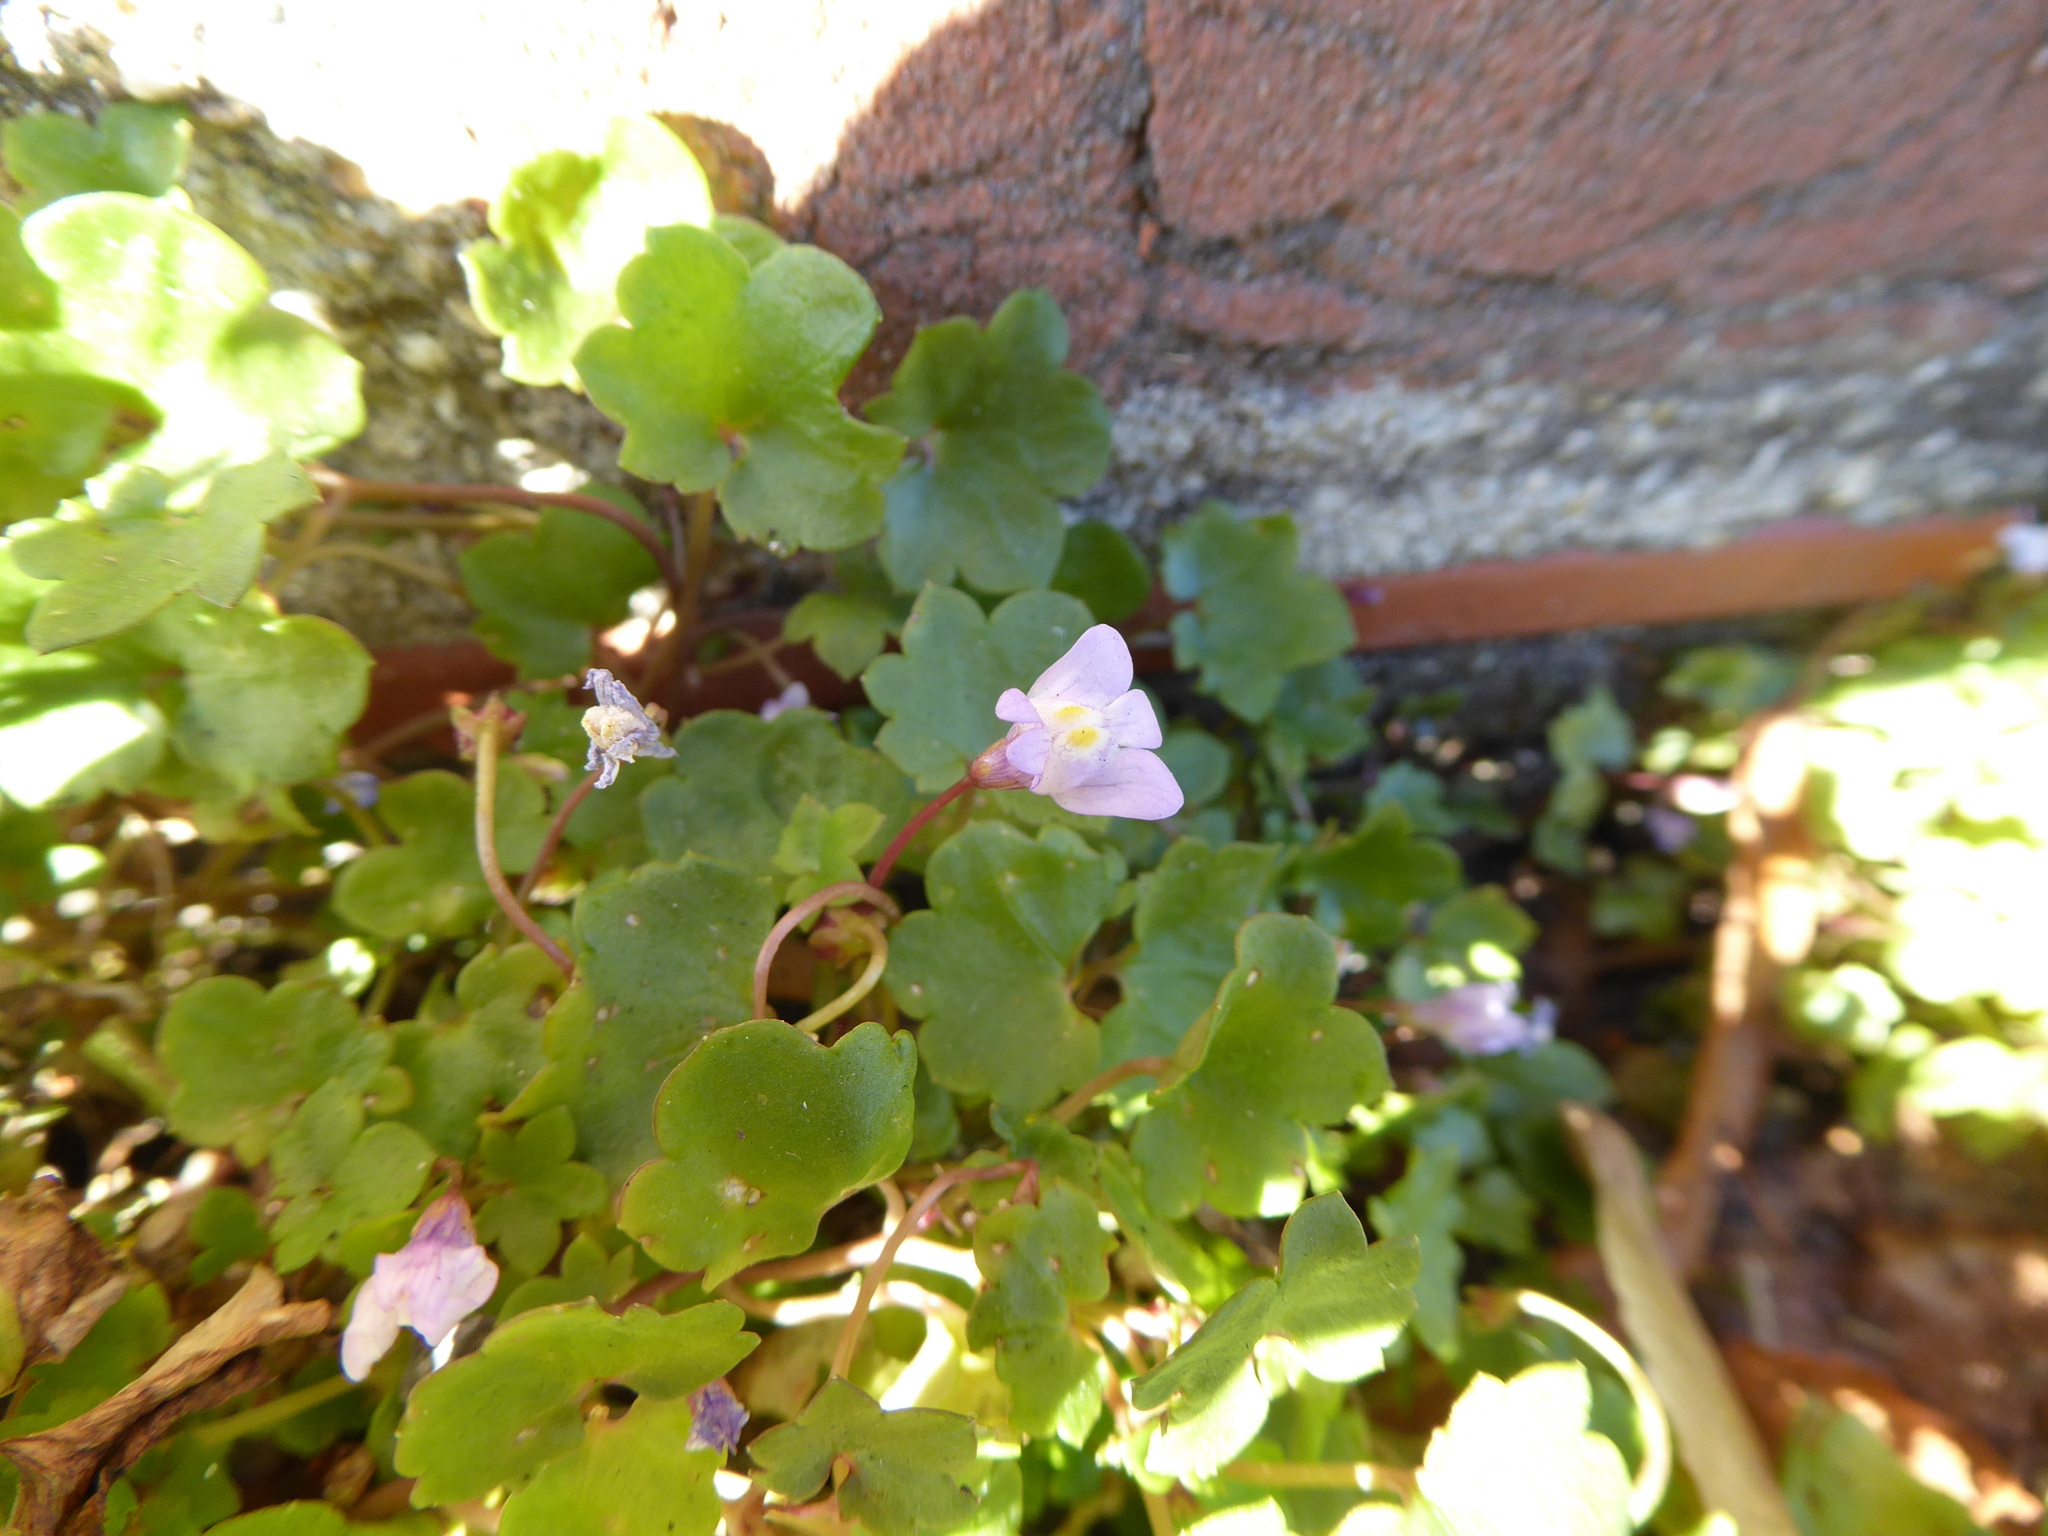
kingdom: Plantae
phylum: Tracheophyta
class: Magnoliopsida
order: Lamiales
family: Plantaginaceae
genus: Cymbalaria
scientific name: Cymbalaria muralis
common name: Ivy-leaved toadflax
